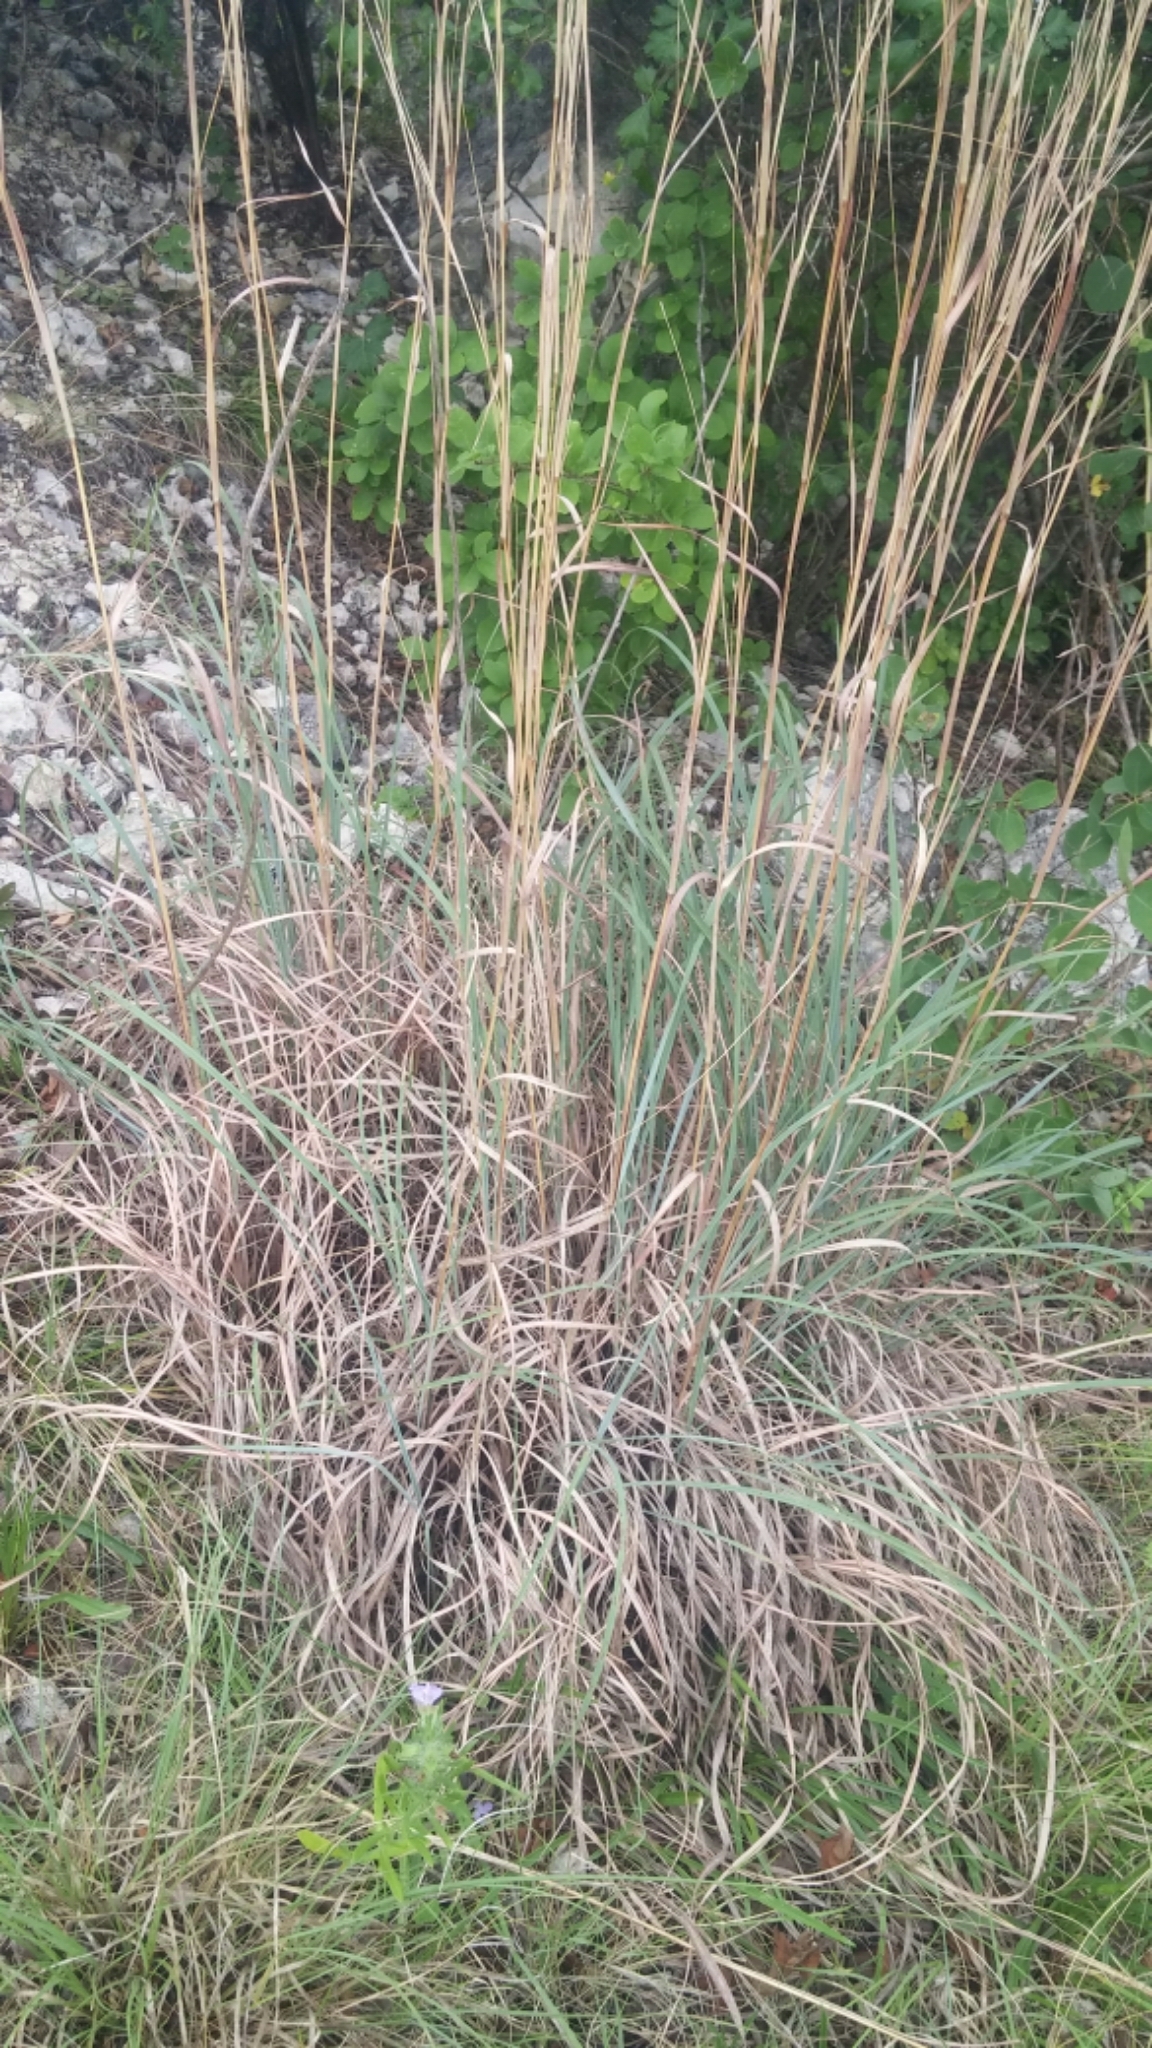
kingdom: Plantae
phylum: Tracheophyta
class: Liliopsida
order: Poales
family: Poaceae
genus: Schizachyrium
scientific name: Schizachyrium scoparium
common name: Little bluestem
